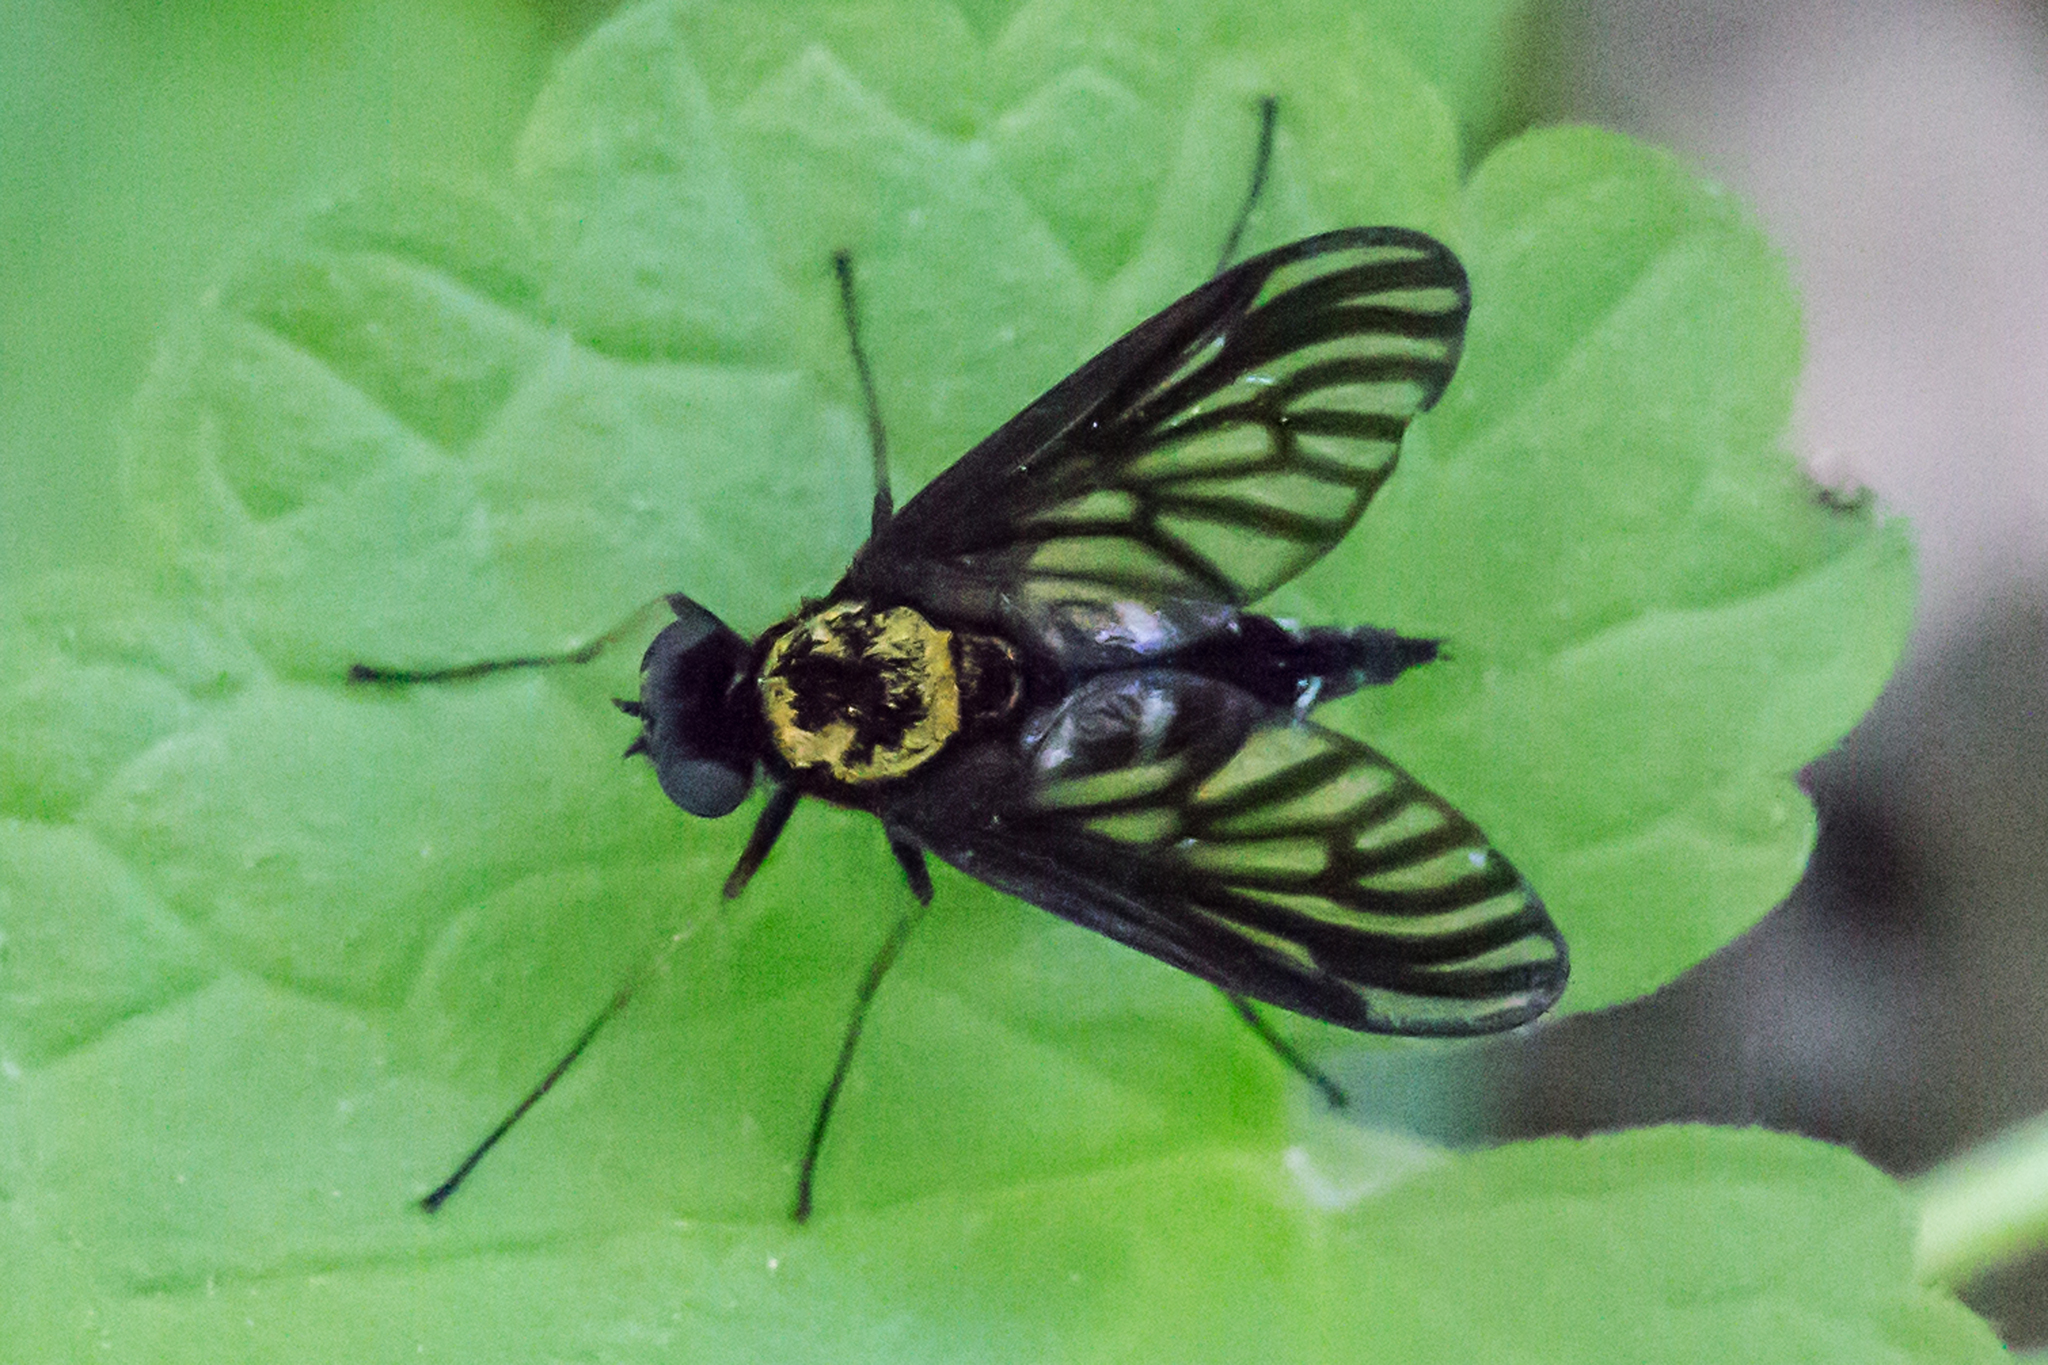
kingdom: Animalia
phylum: Arthropoda
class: Insecta
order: Diptera
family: Rhagionidae
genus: Chrysopilus
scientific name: Chrysopilus thoracicus
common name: Golden-backed snipe fly
